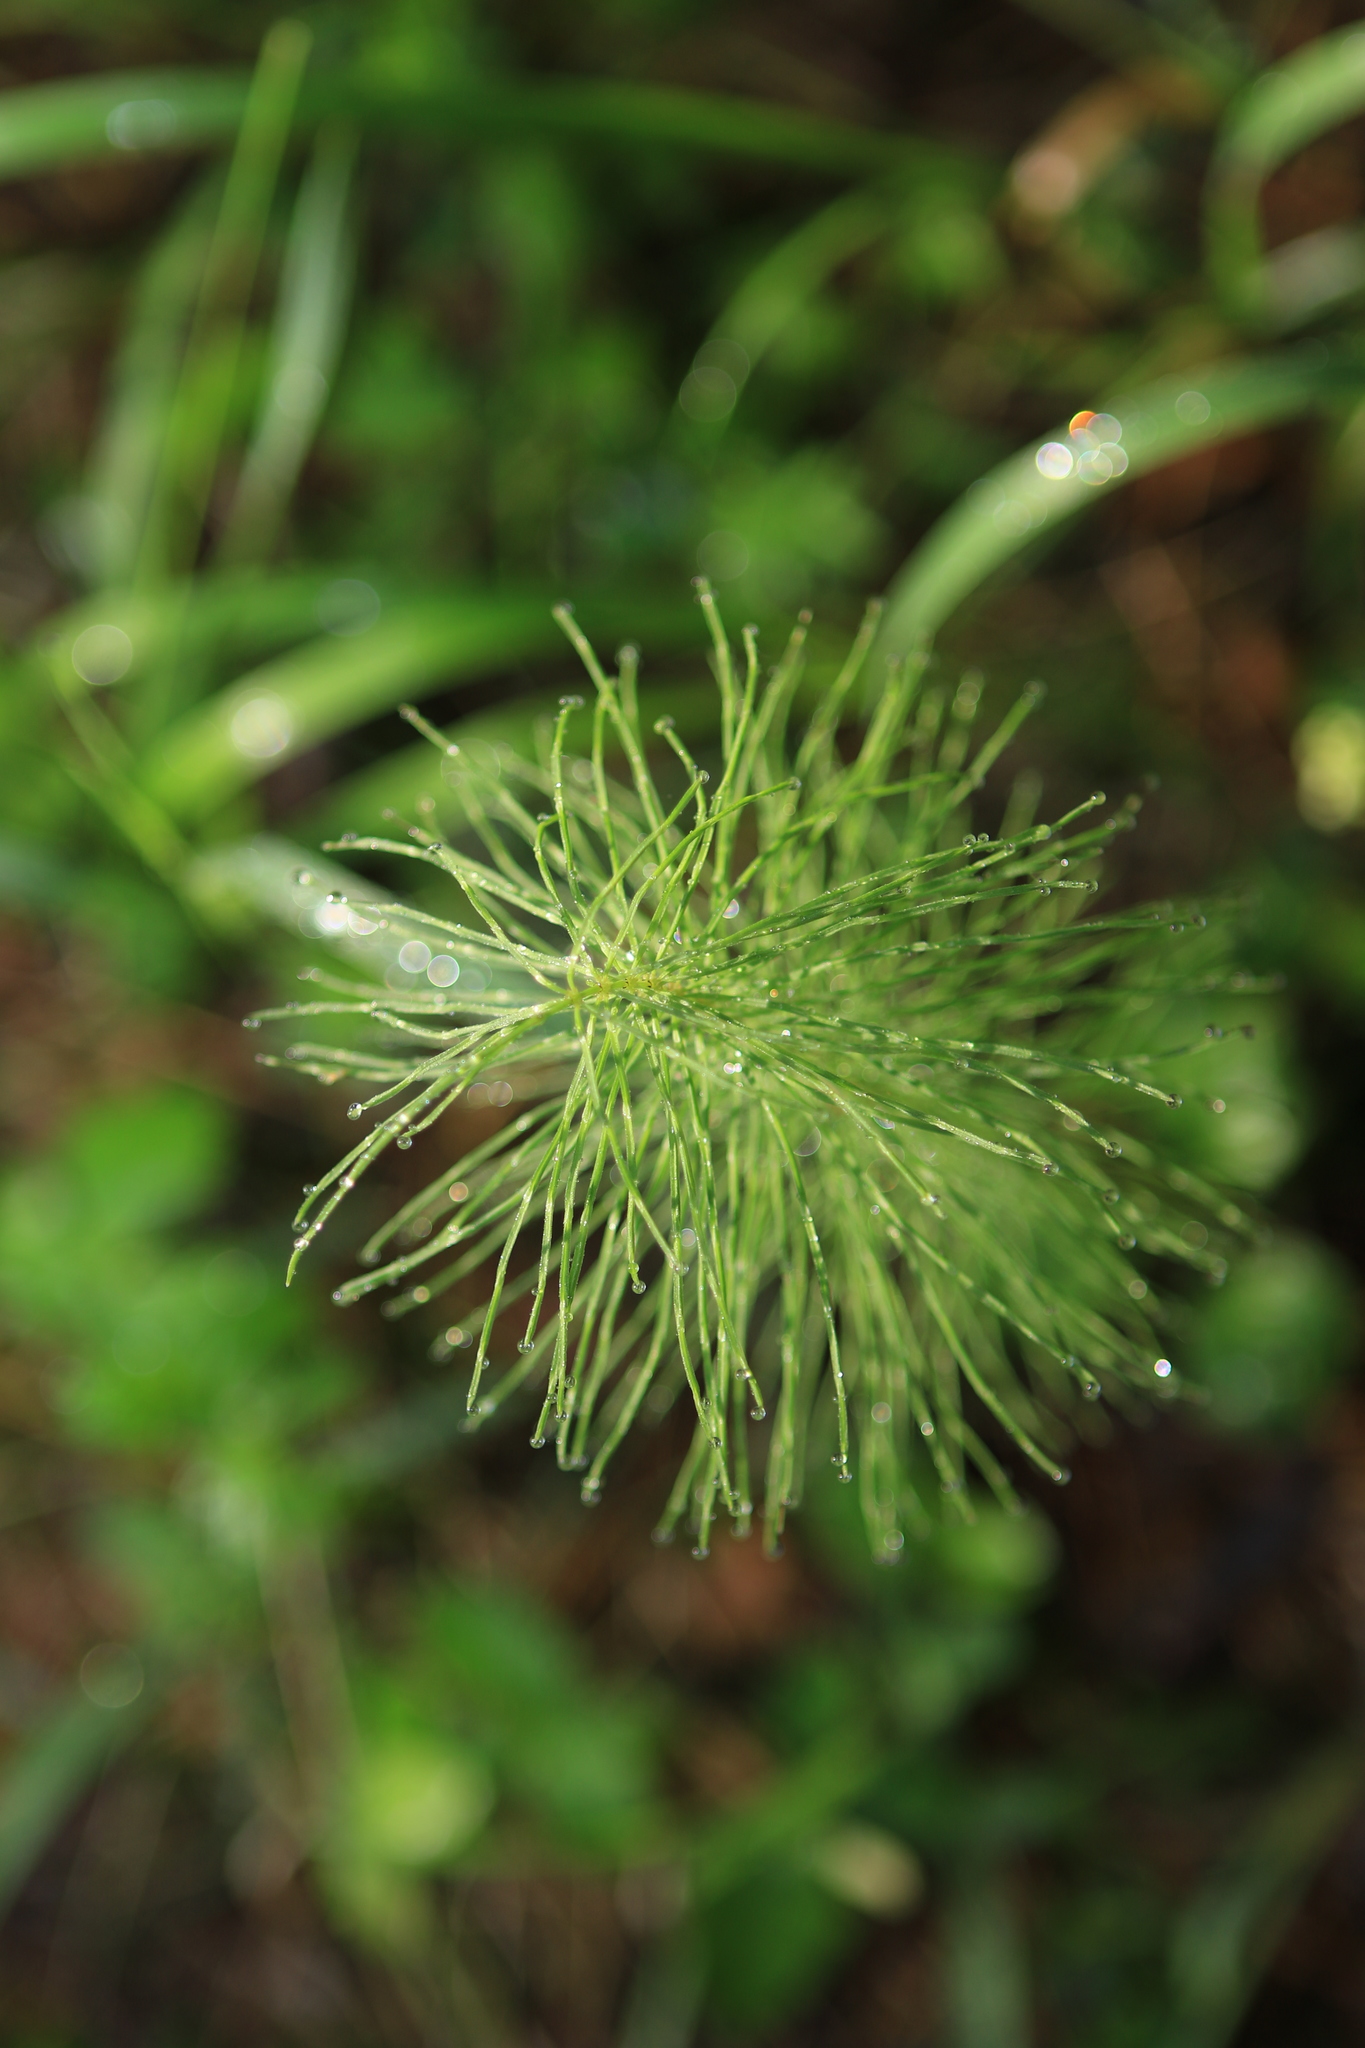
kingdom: Plantae
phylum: Tracheophyta
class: Polypodiopsida
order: Equisetales
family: Equisetaceae
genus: Equisetum
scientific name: Equisetum pratense
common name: Meadow horsetail
